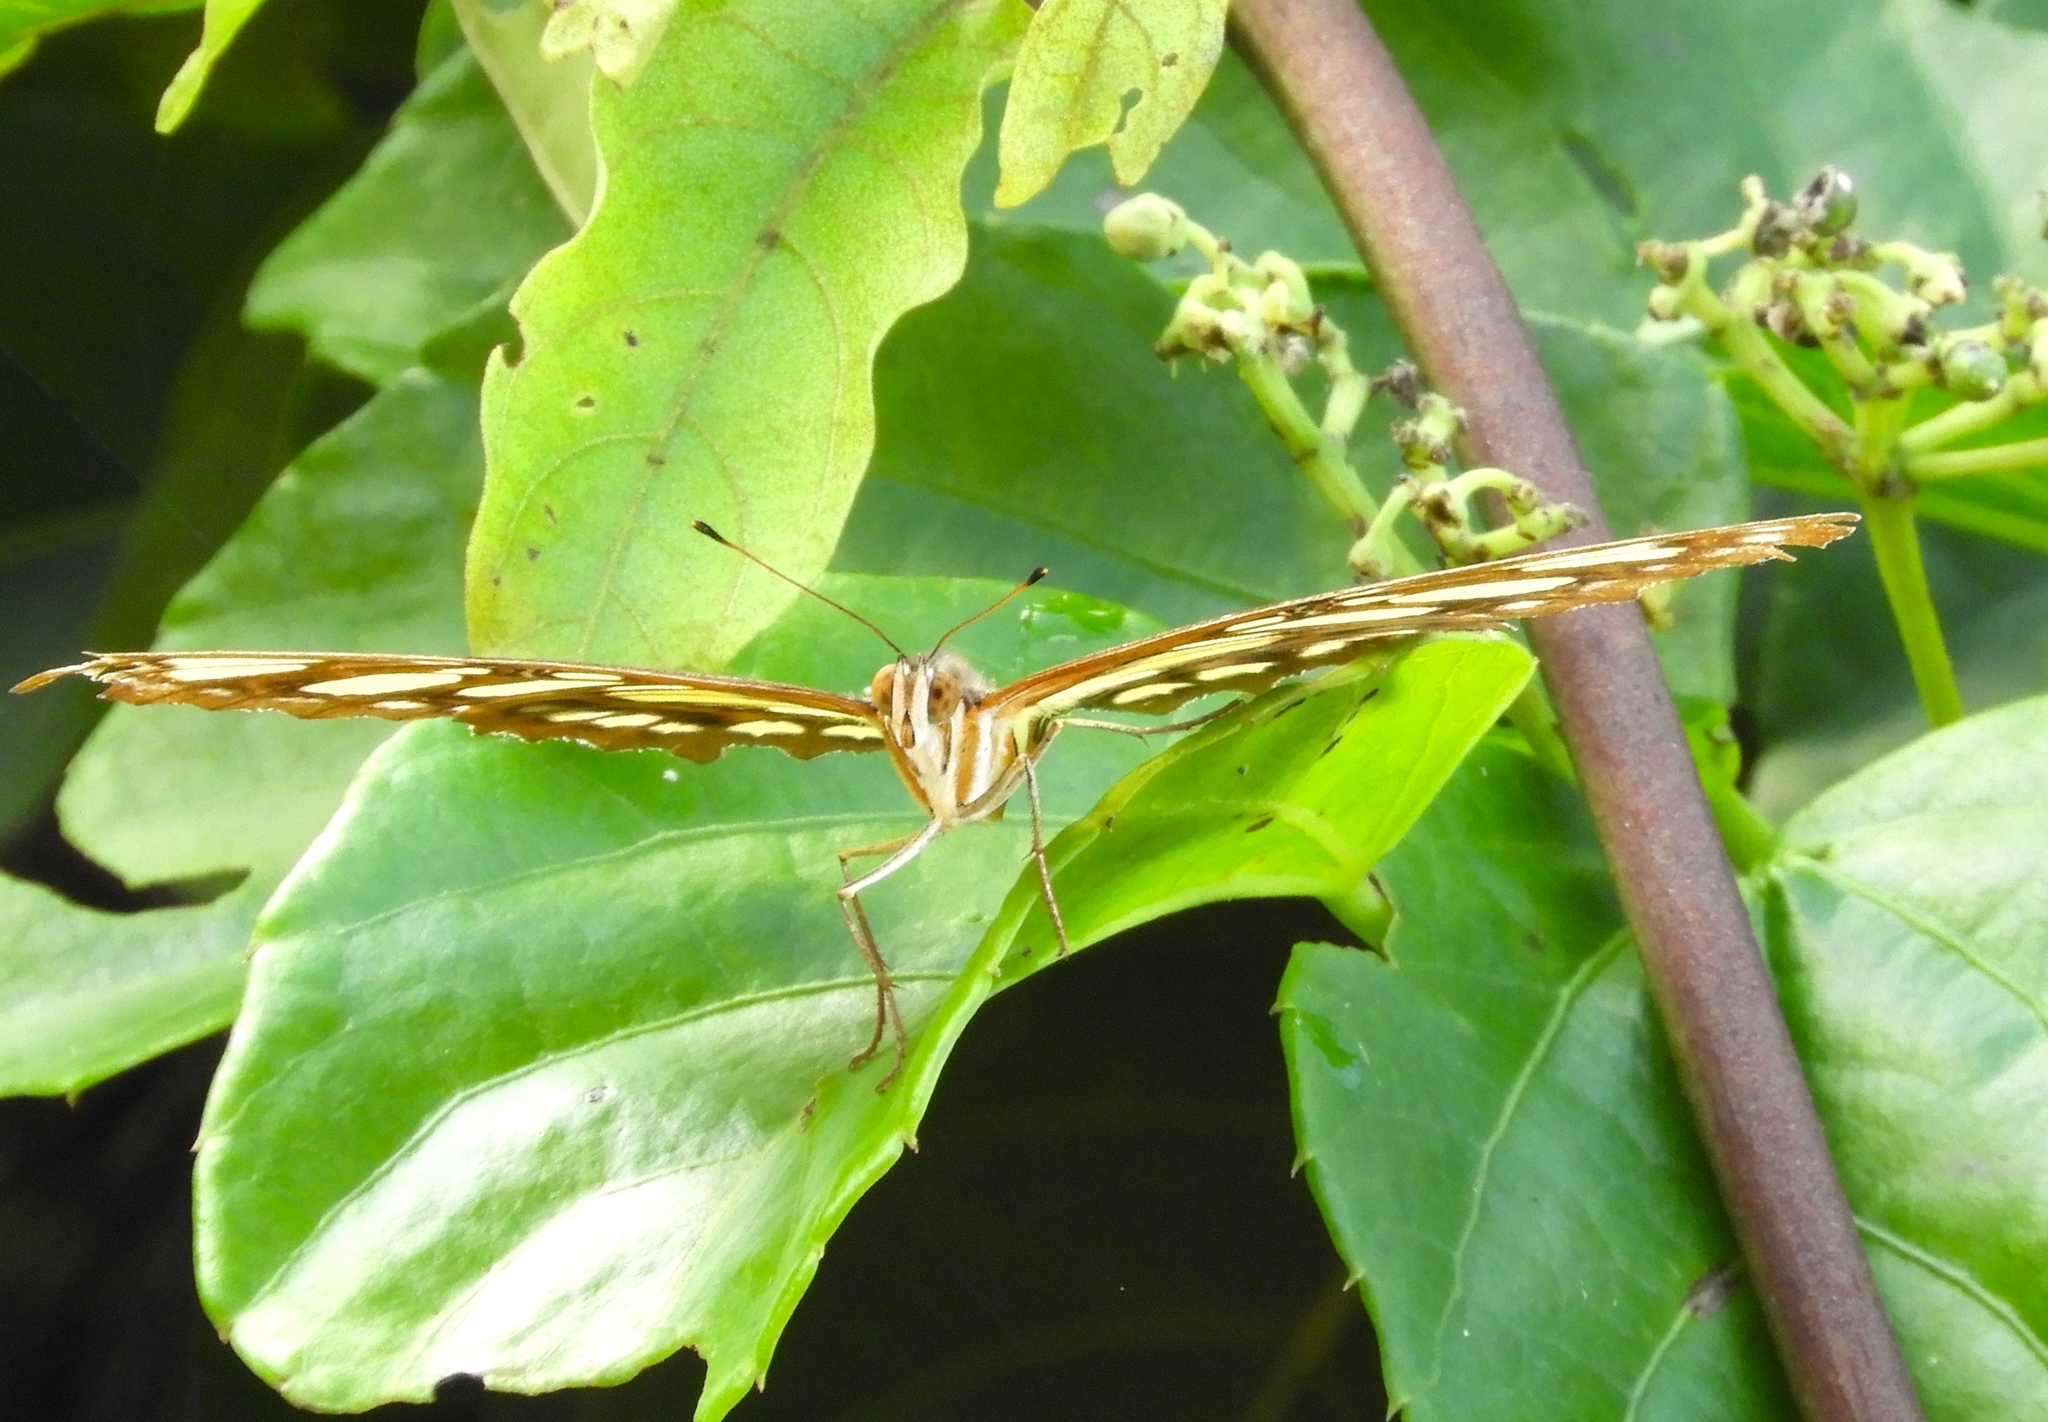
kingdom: Animalia
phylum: Arthropoda
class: Insecta
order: Lepidoptera
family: Nymphalidae
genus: Siproeta
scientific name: Siproeta stelenes
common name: Malachite
